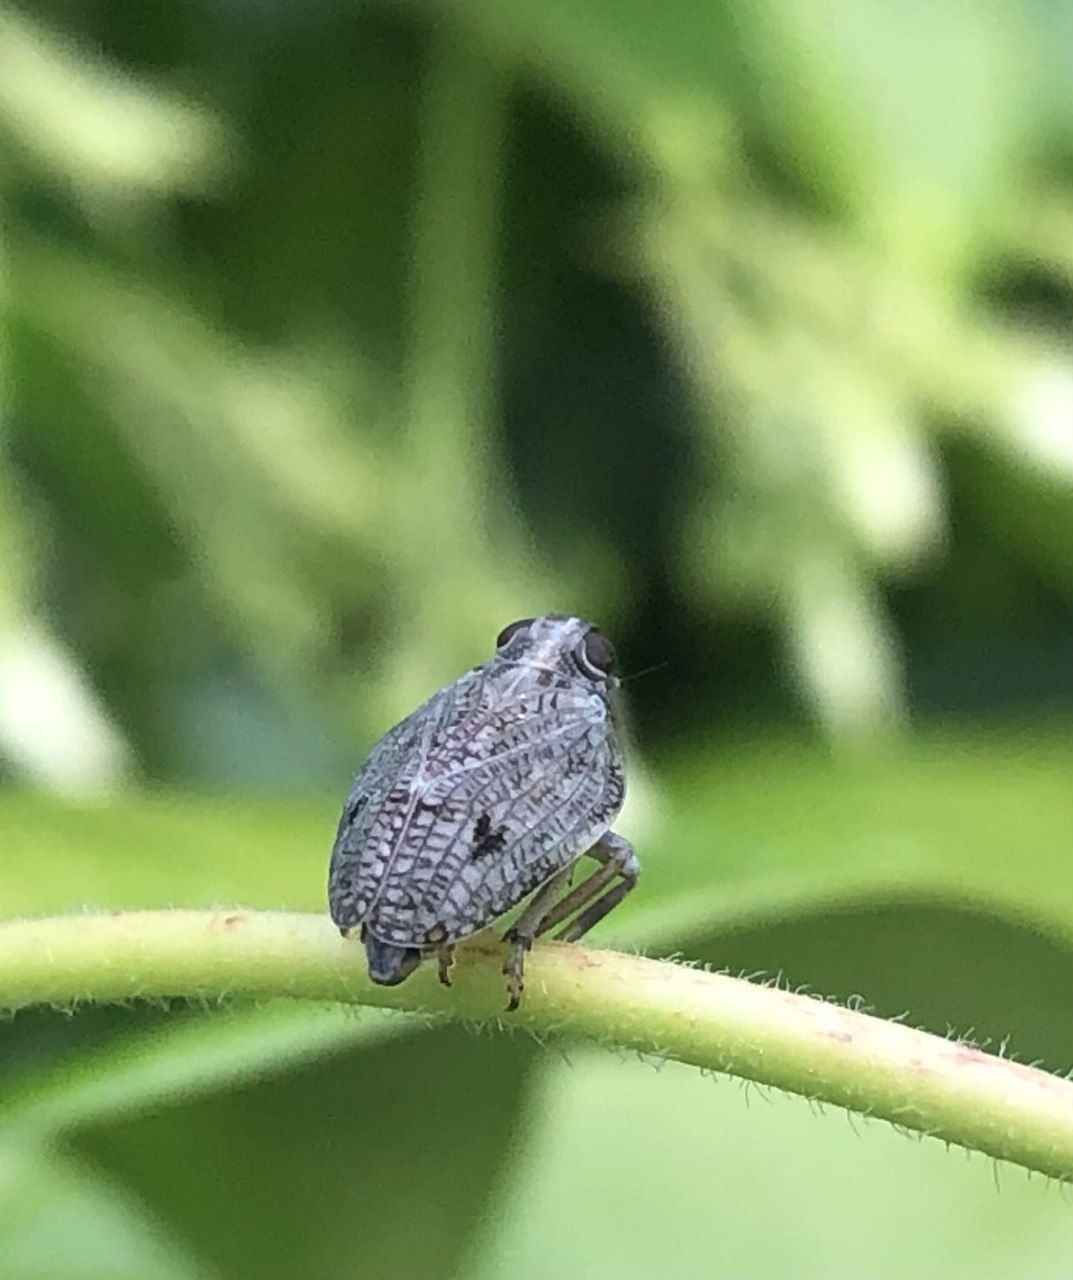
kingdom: Animalia
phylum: Arthropoda
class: Insecta
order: Hemiptera
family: Issidae
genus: Issus
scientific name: Issus coleoptratus
